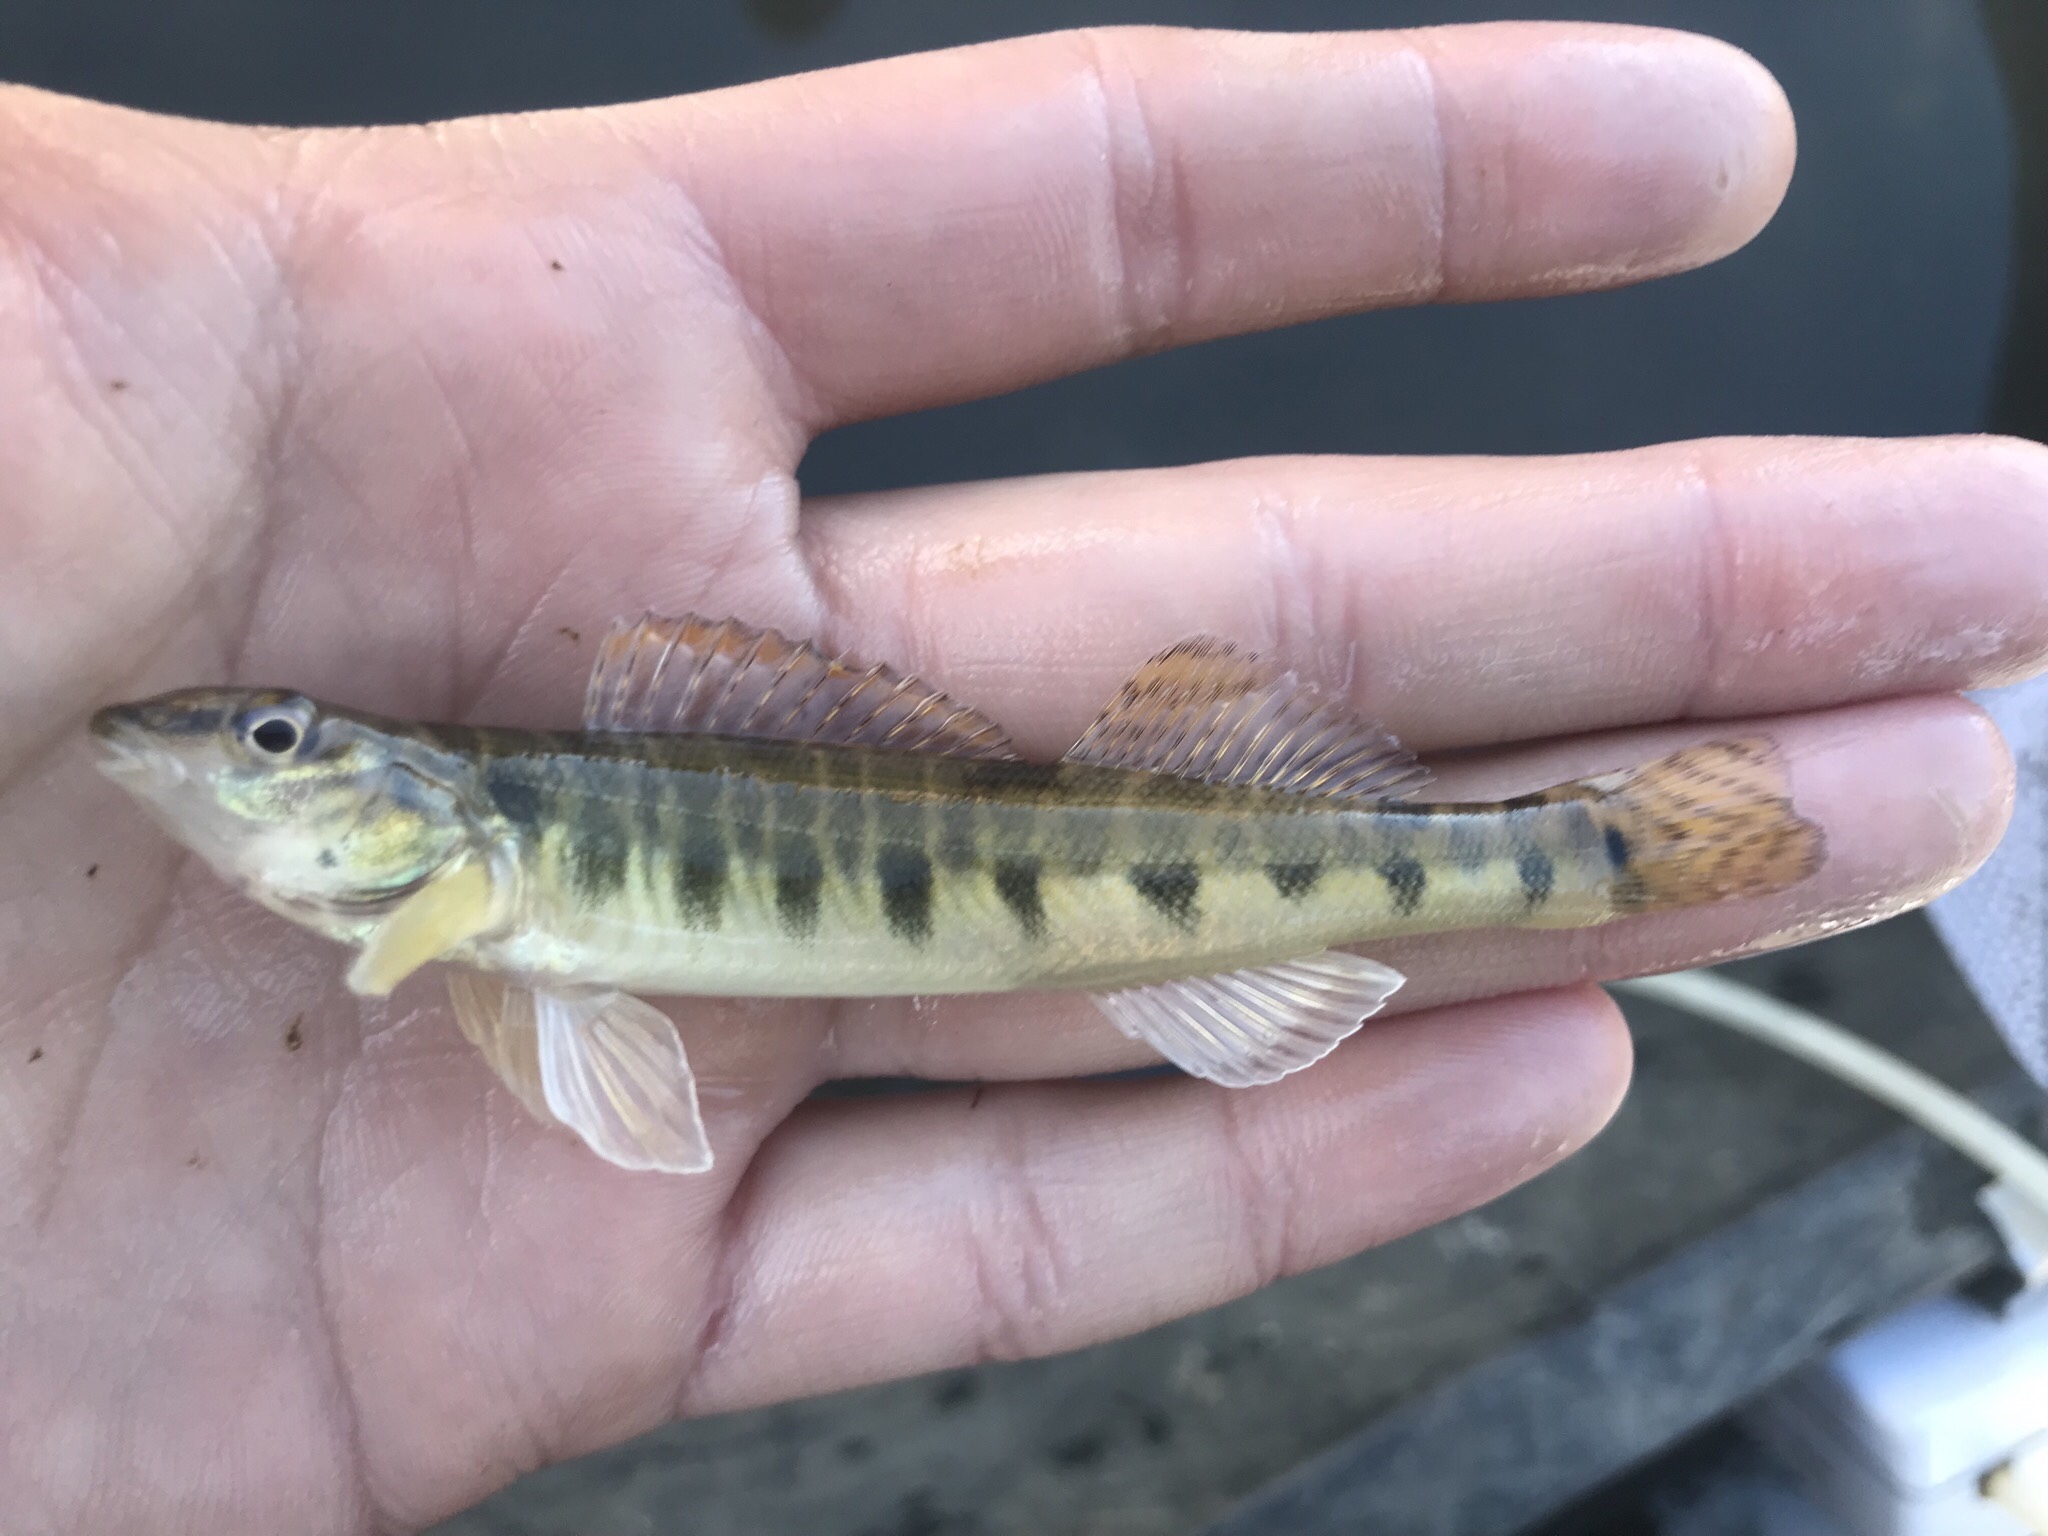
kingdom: Animalia
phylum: Chordata
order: Perciformes
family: Percidae
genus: Percina
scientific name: Percina carbonaria
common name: Texas logperch
